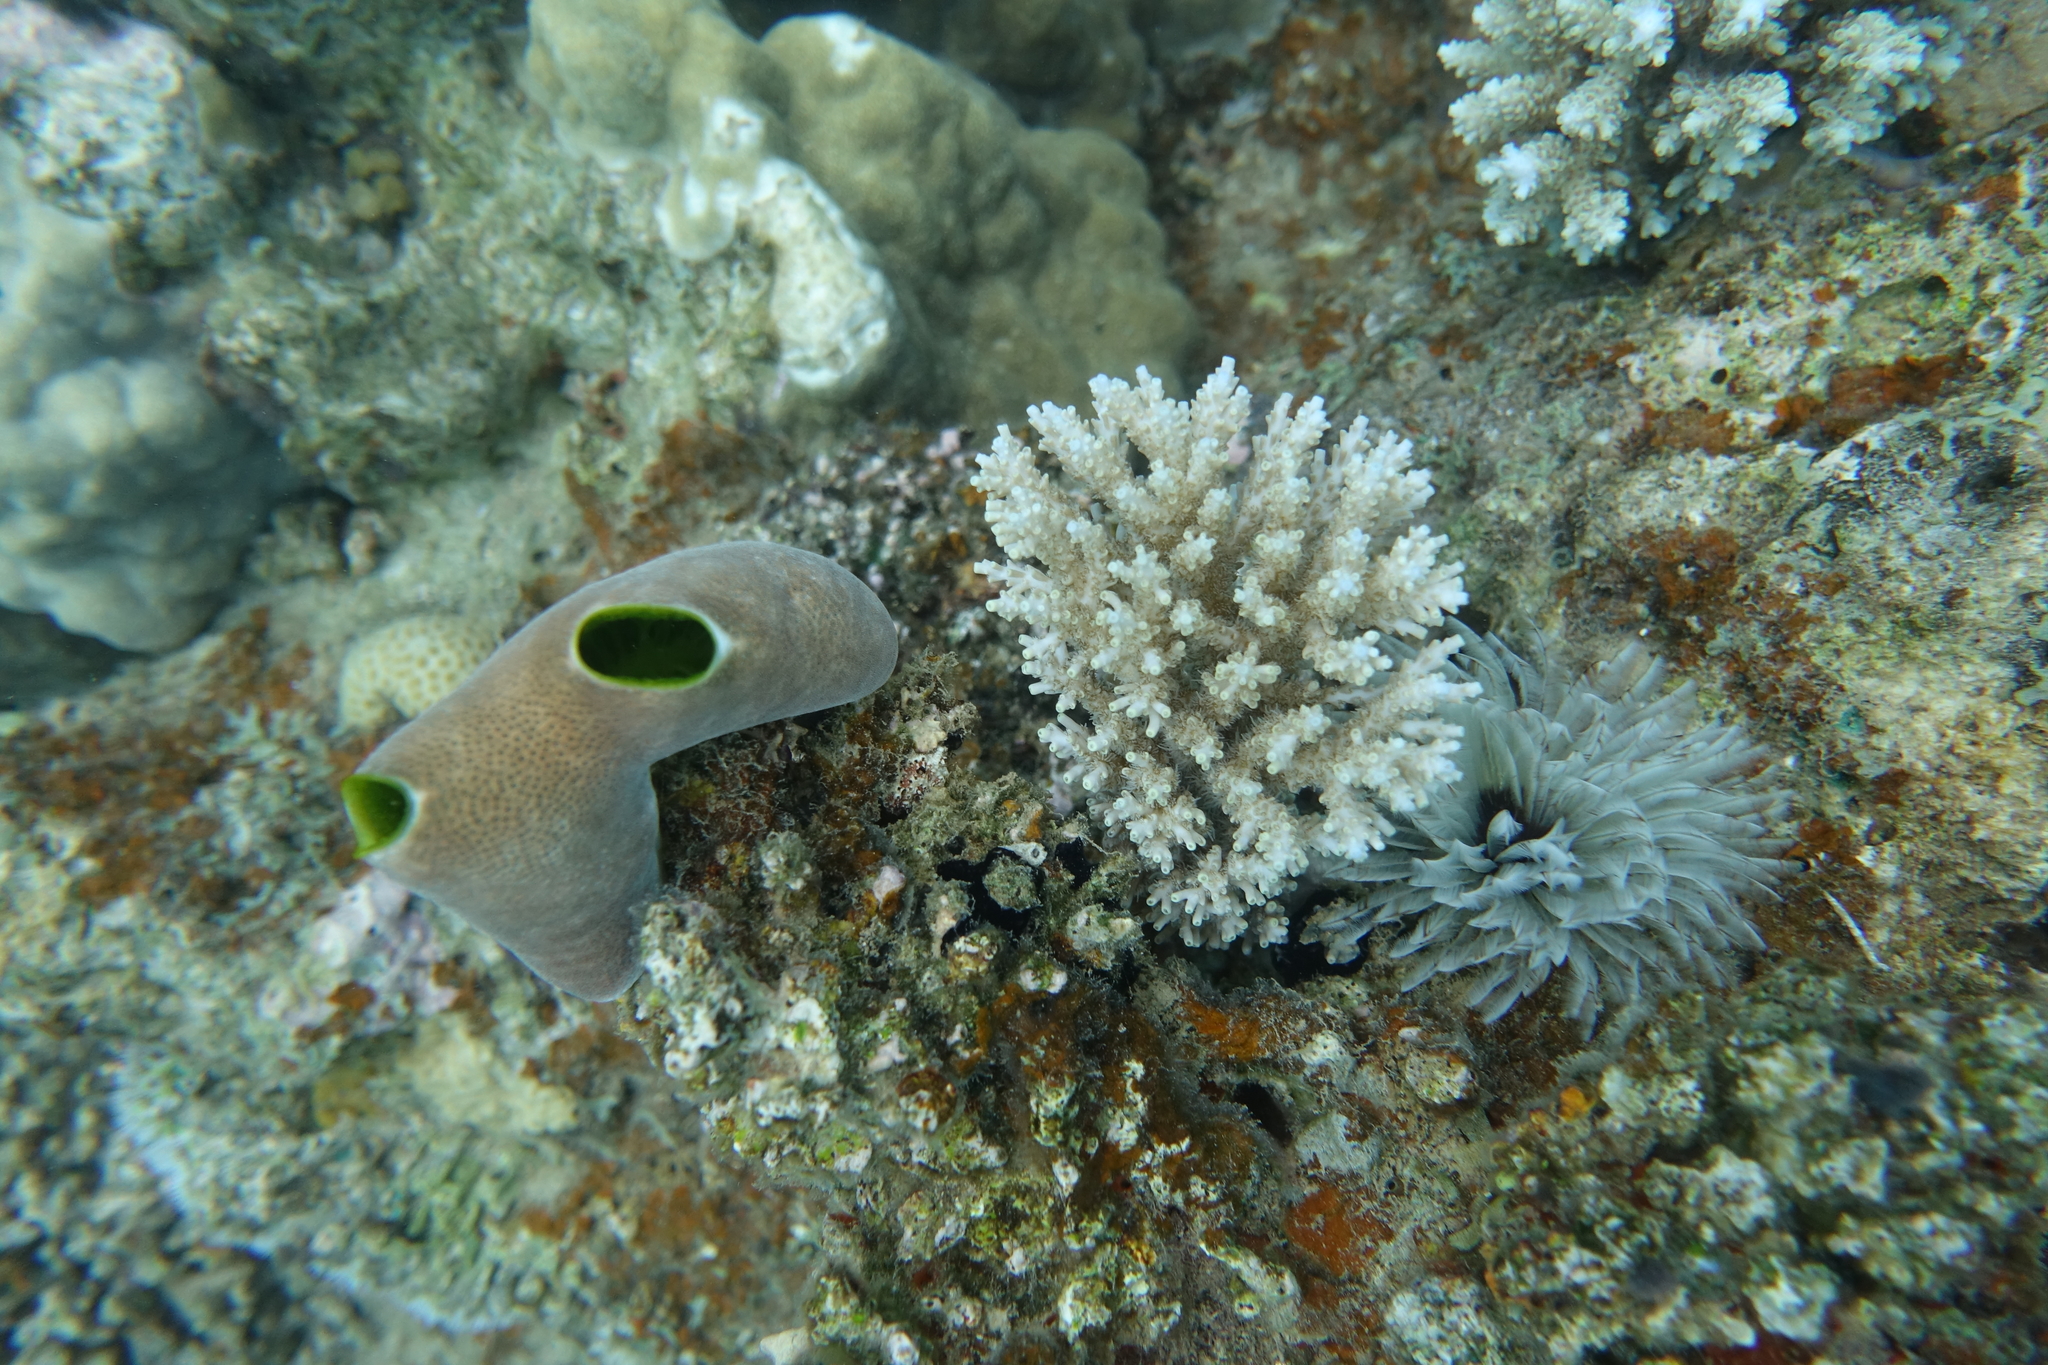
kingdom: Animalia
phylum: Chordata
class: Ascidiacea
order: Aplousobranchia
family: Didemnidae
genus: Didemnum
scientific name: Didemnum molle
